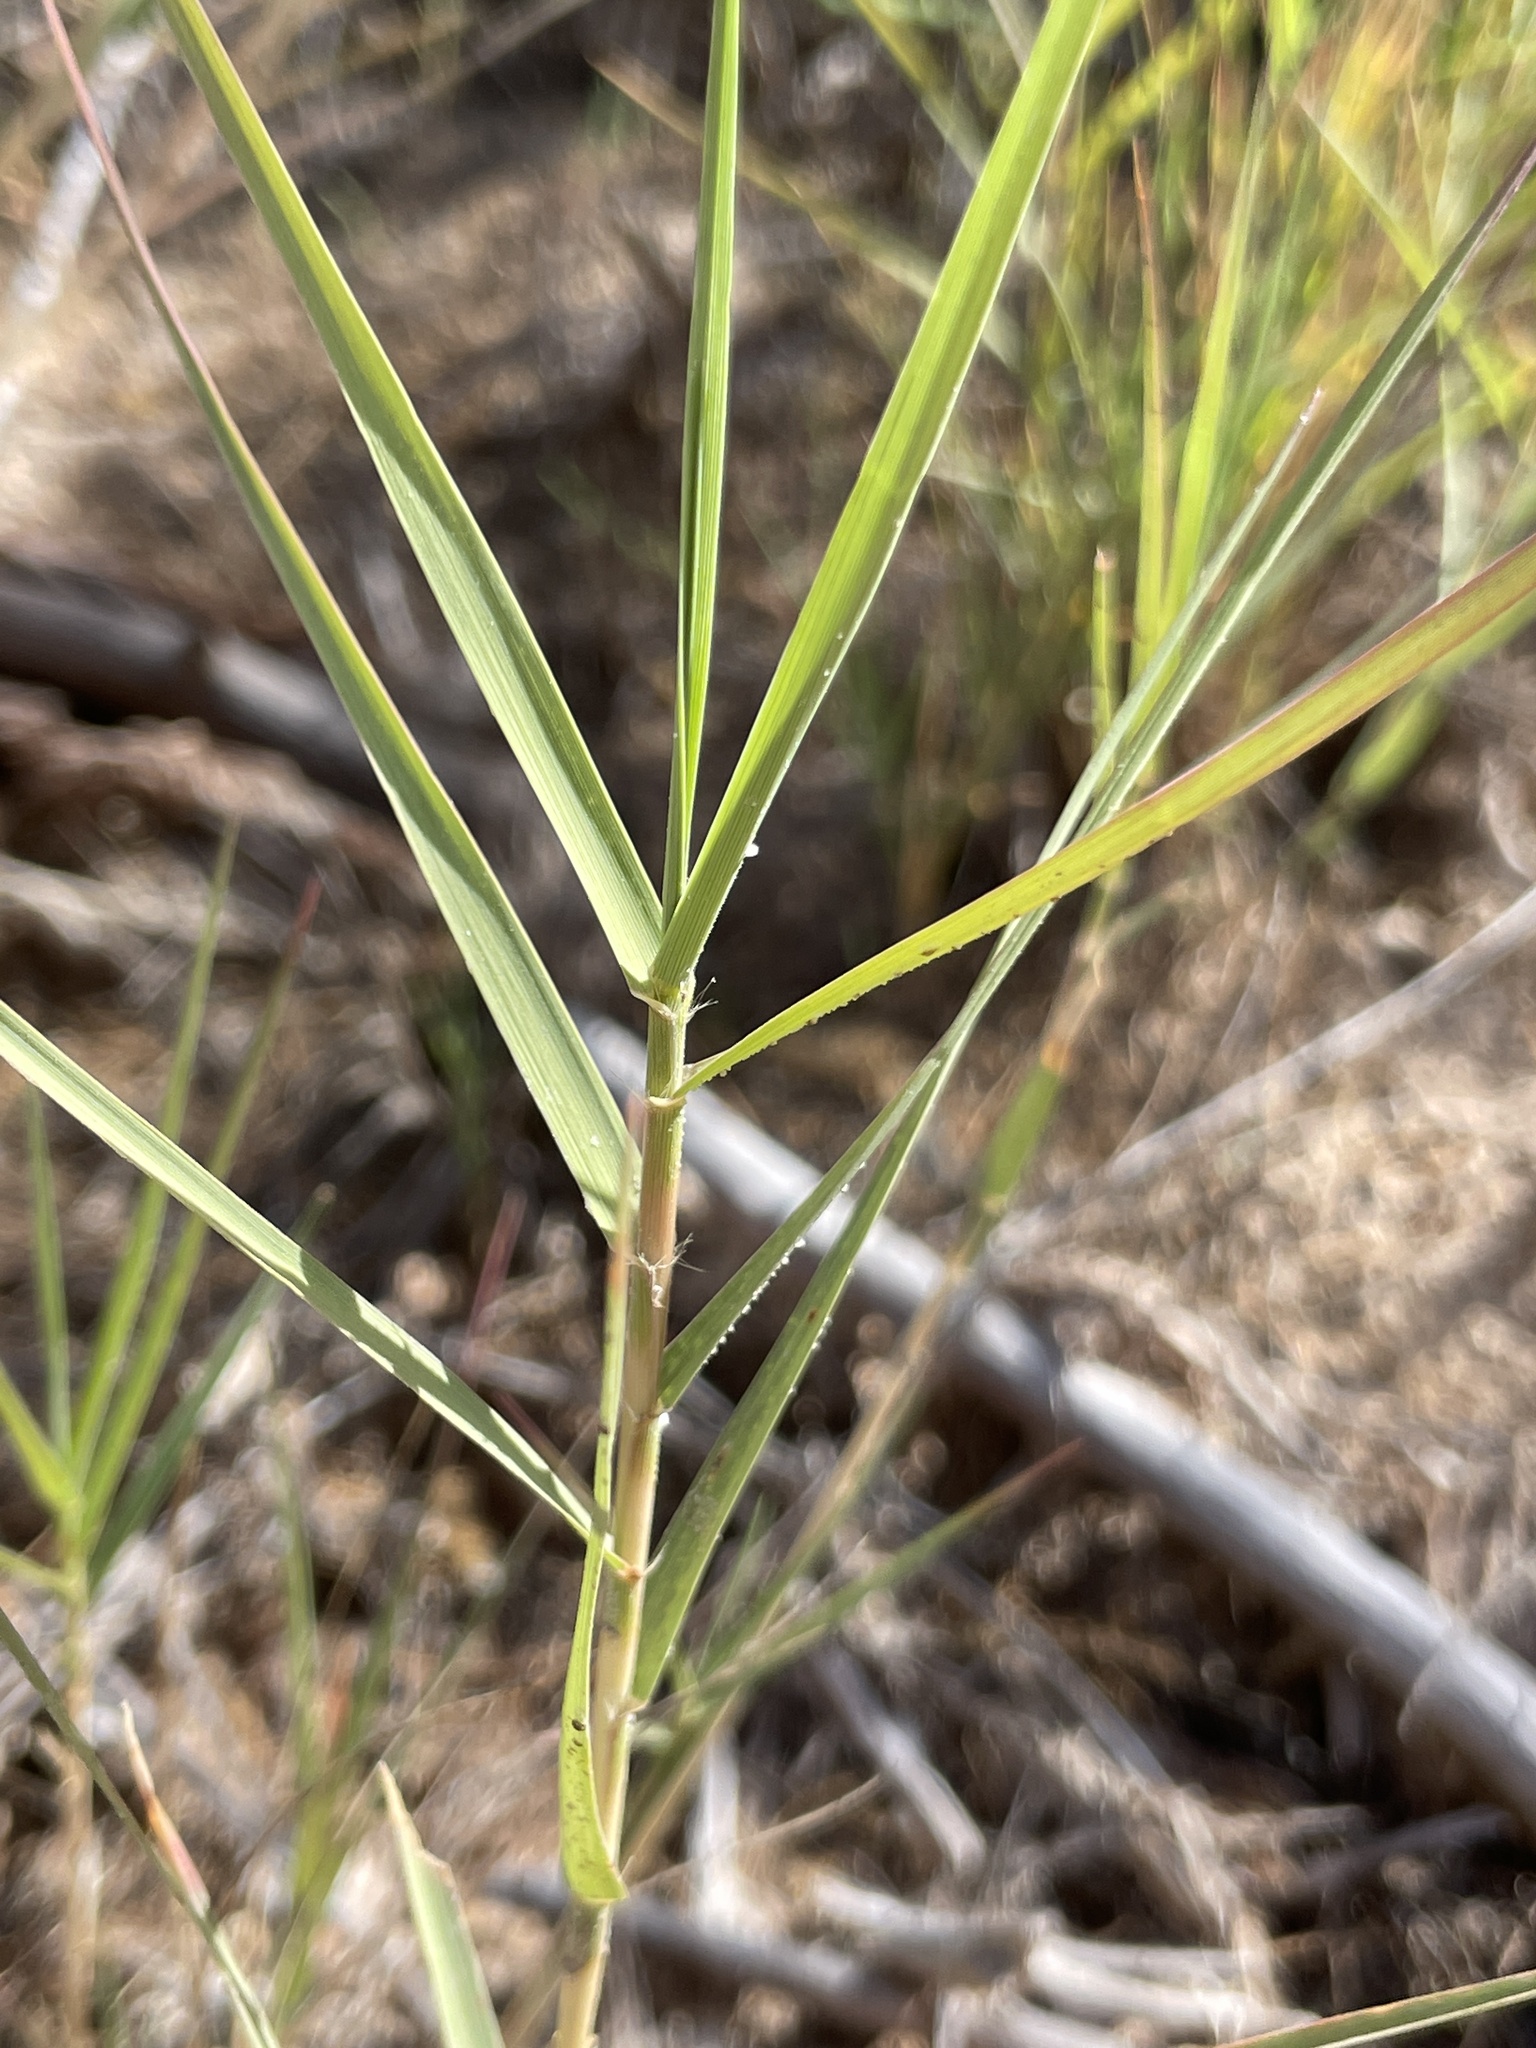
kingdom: Plantae
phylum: Tracheophyta
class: Liliopsida
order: Poales
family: Poaceae
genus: Distichlis
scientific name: Distichlis spicata
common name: Saltgrass
